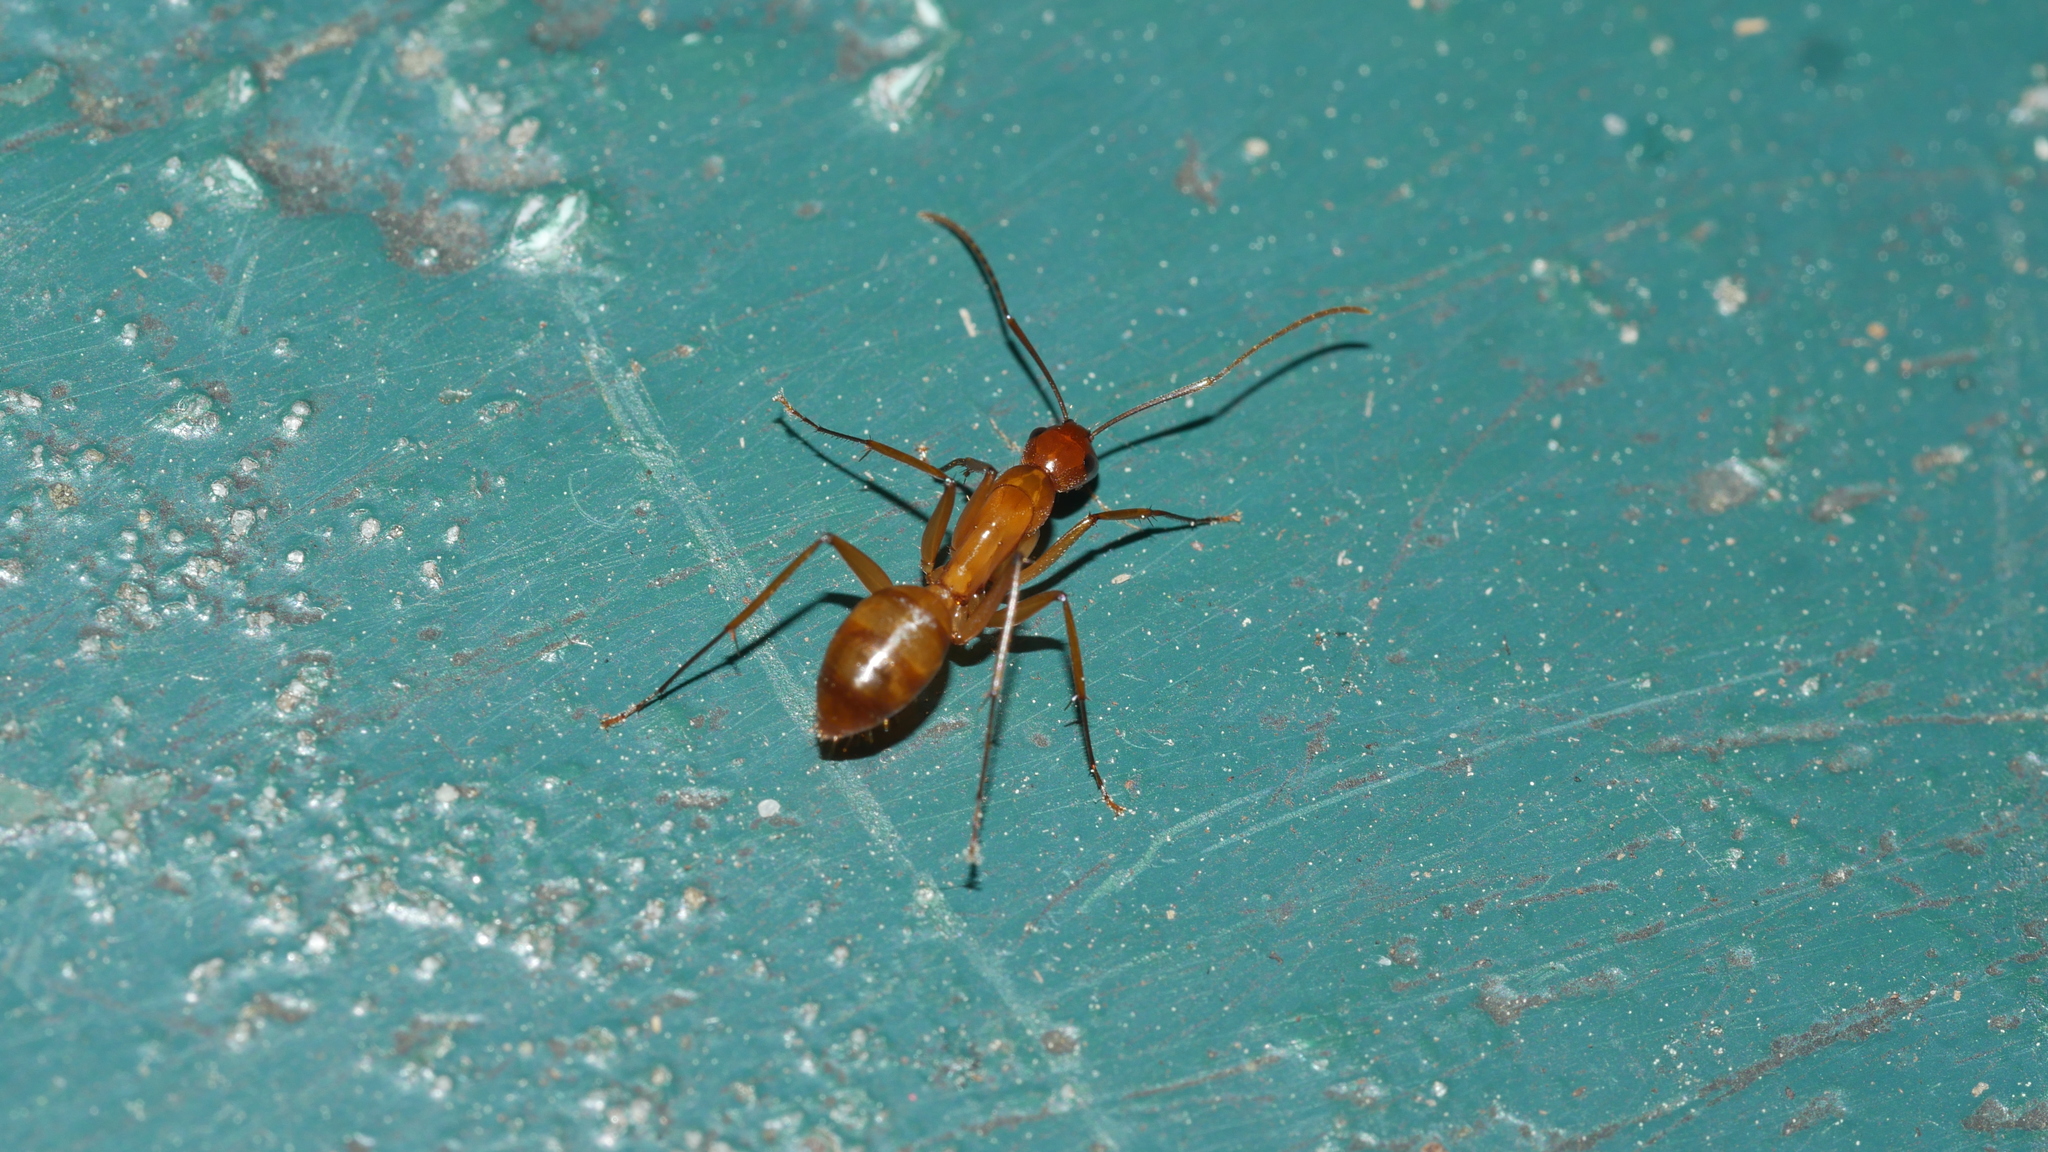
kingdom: Animalia
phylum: Arthropoda
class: Insecta
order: Hymenoptera
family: Formicidae
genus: Camponotus
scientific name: Camponotus castaneus
